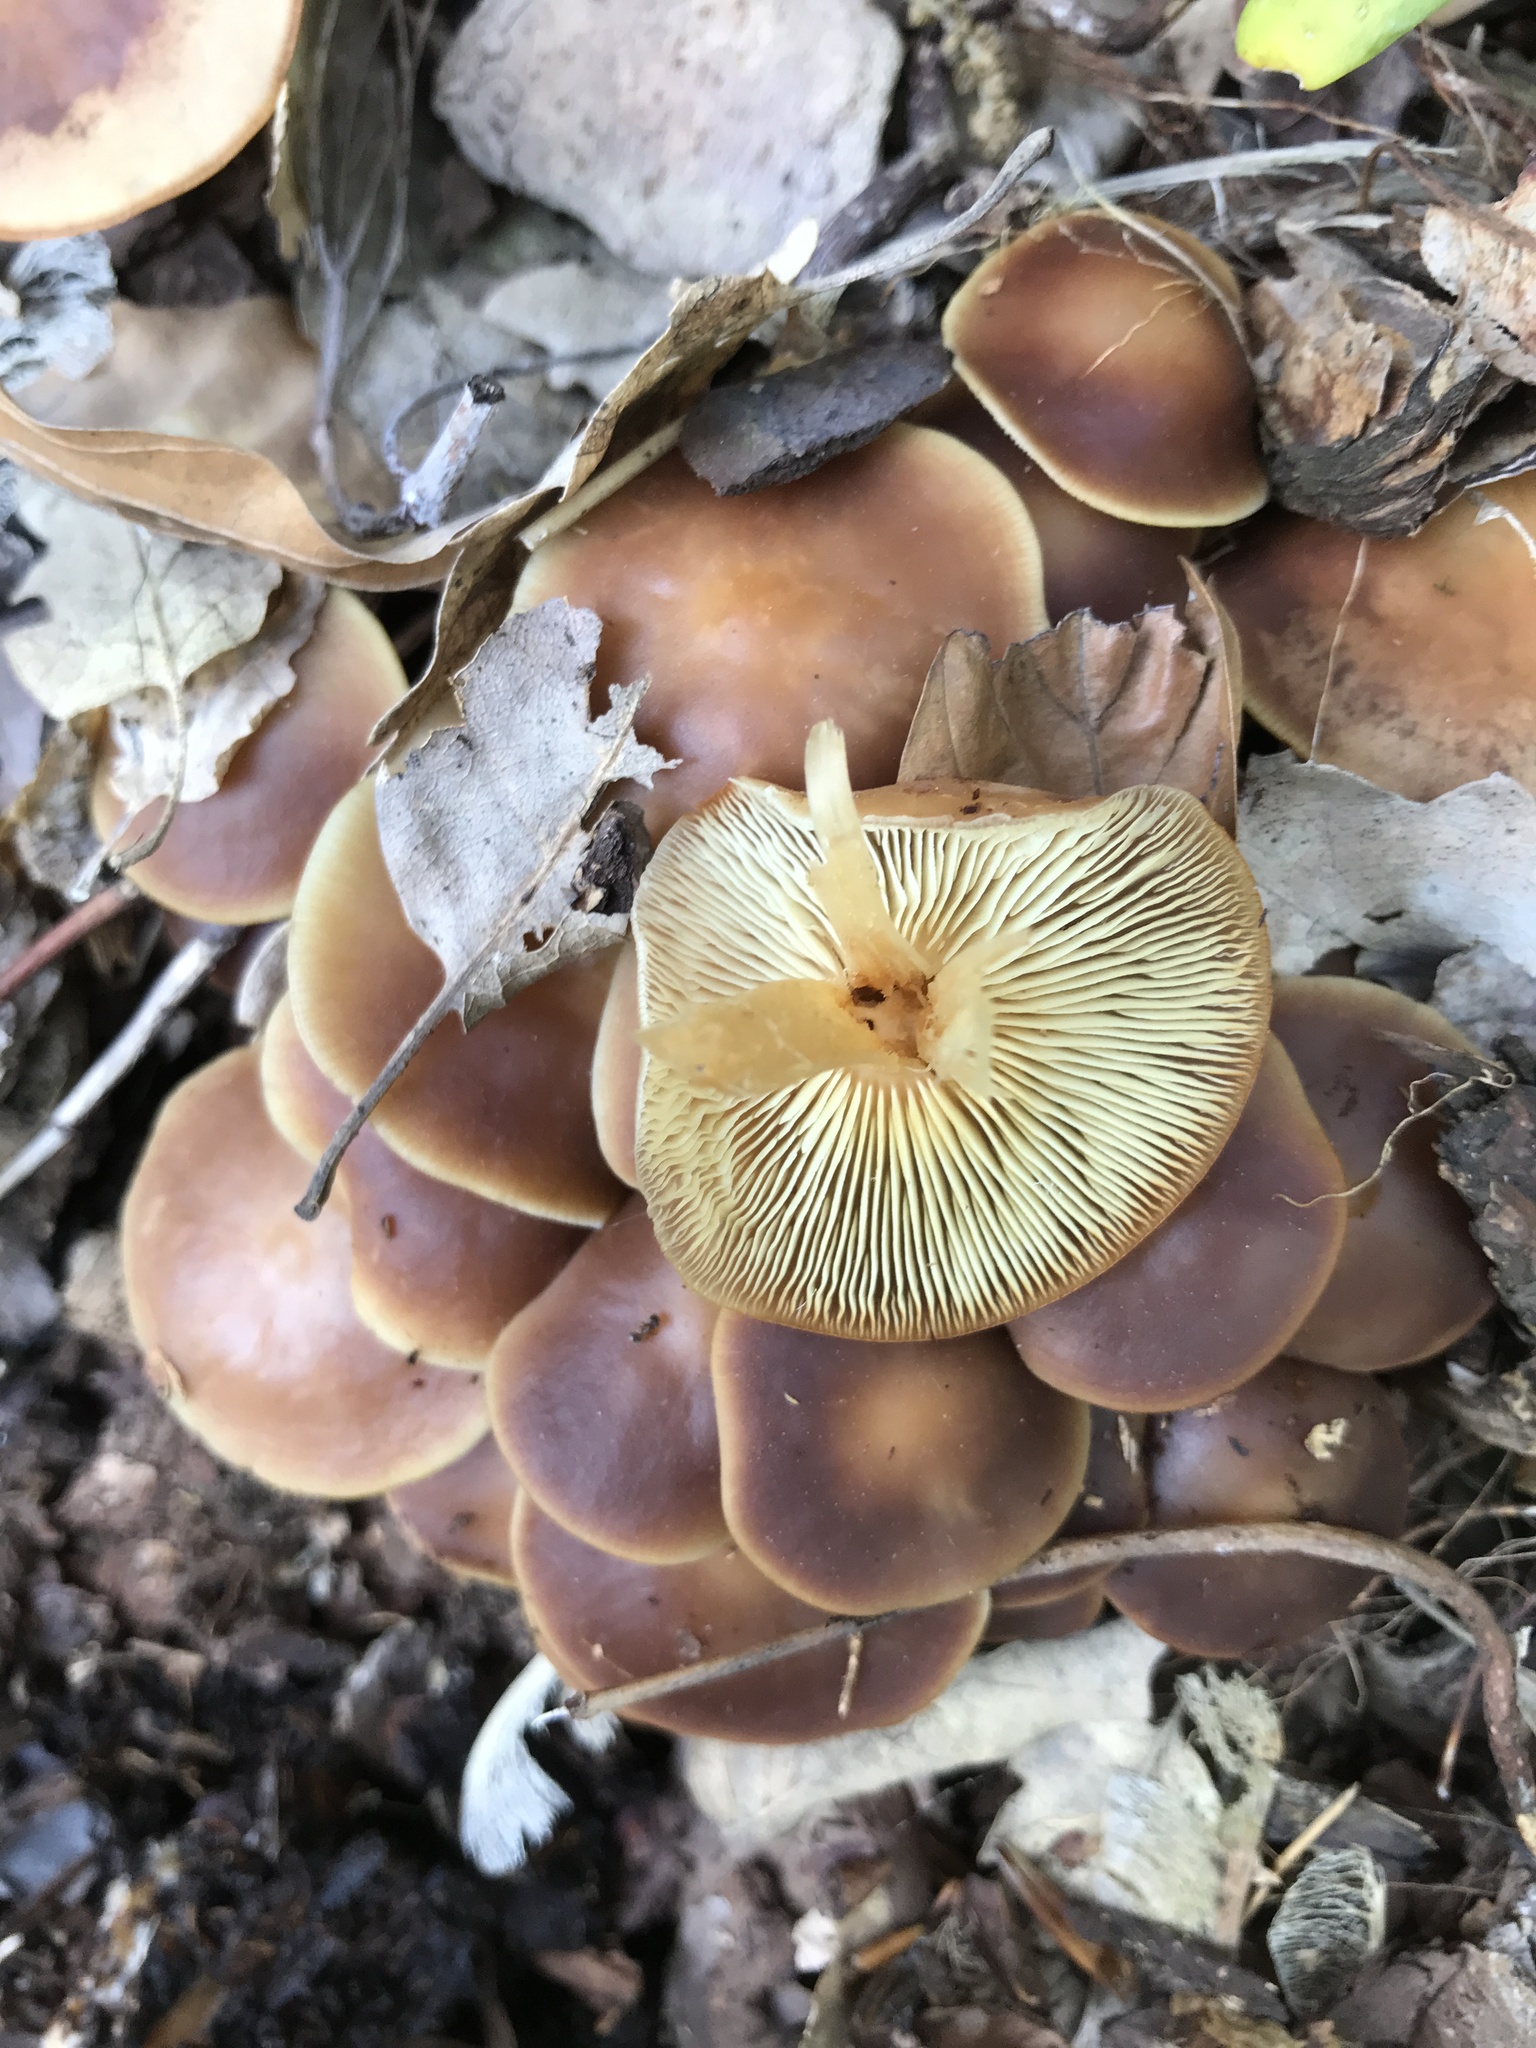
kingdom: Fungi
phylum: Basidiomycota
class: Agaricomycetes
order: Agaricales
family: Omphalotaceae
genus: Gymnopus
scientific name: Gymnopus ocior
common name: Spring toughshank
